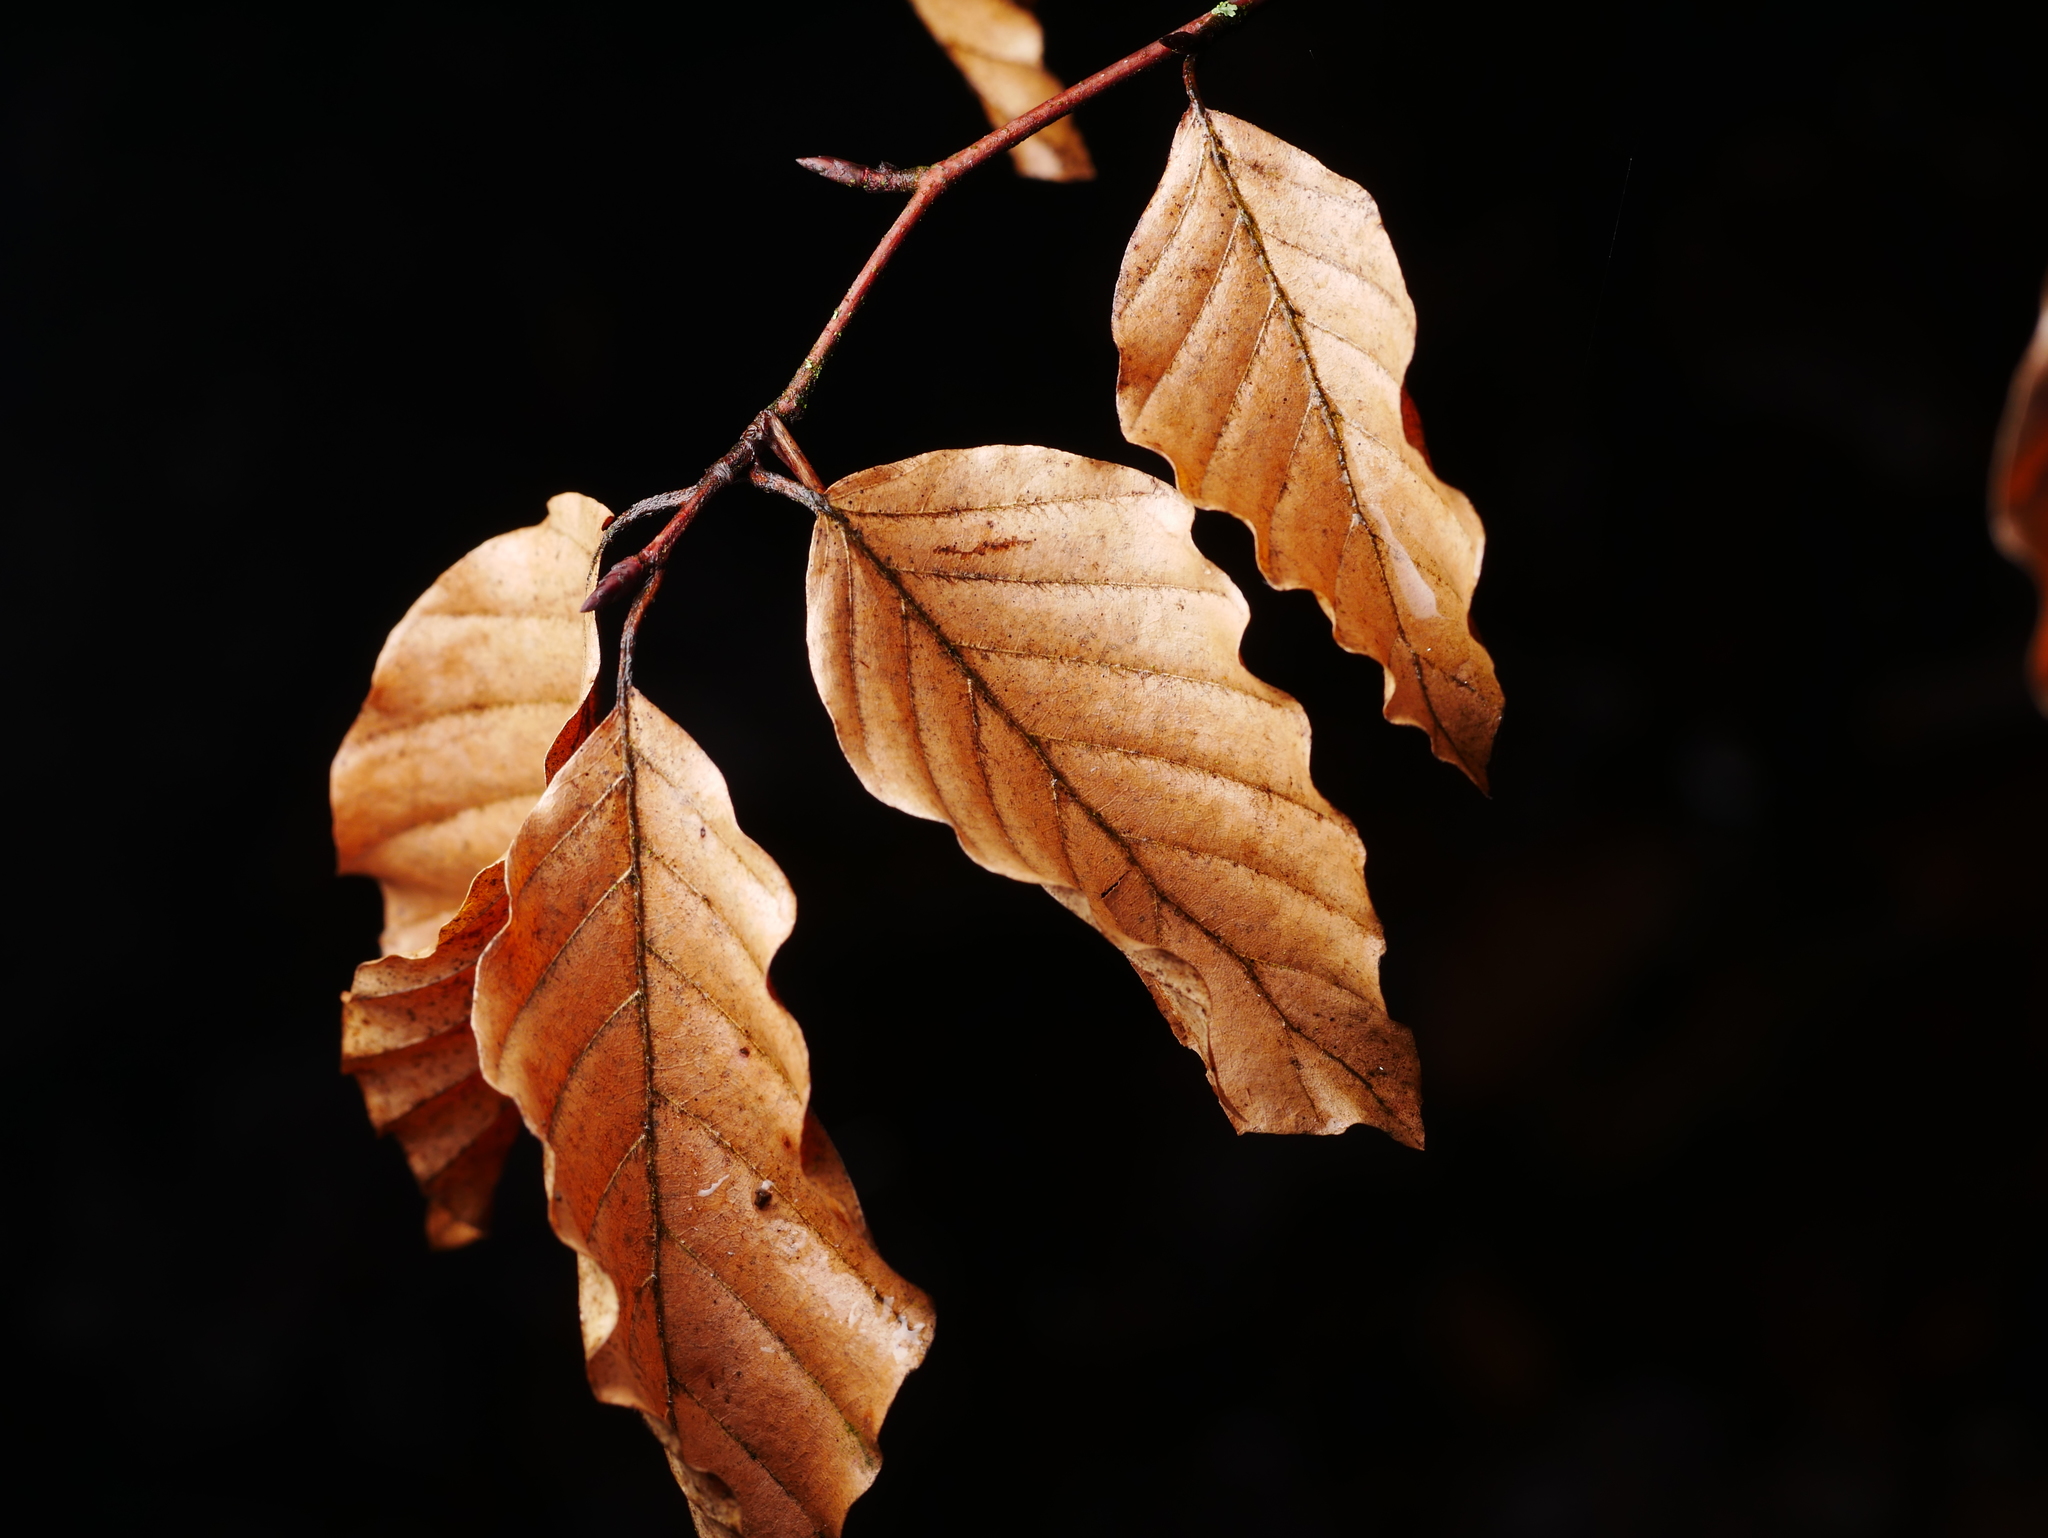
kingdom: Plantae
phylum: Tracheophyta
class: Magnoliopsida
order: Fagales
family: Fagaceae
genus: Fagus
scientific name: Fagus sylvatica
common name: Beech
